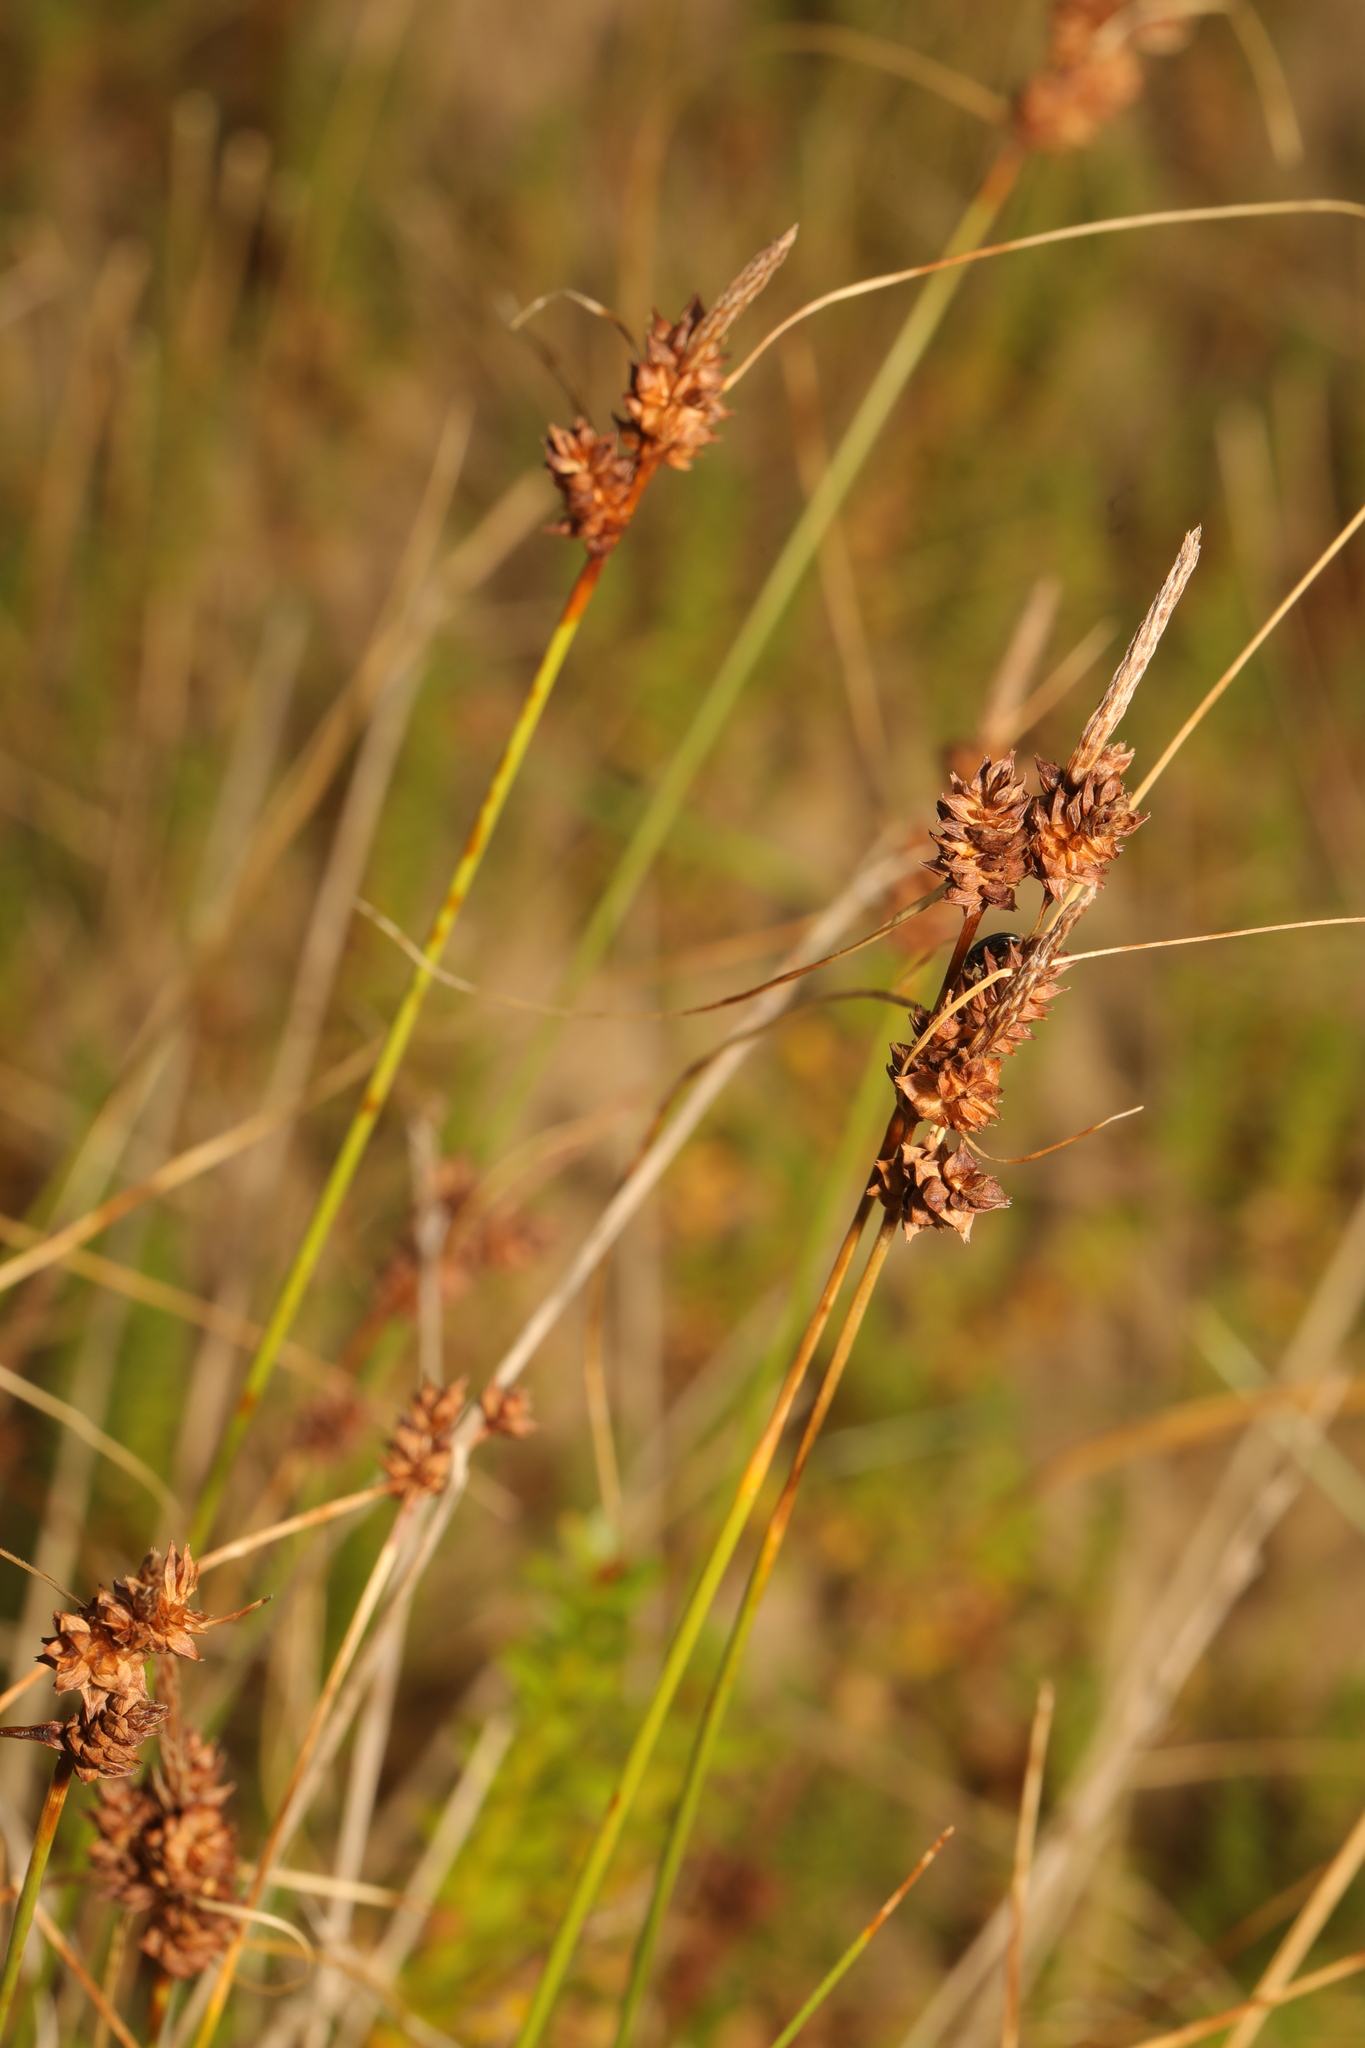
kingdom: Plantae
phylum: Tracheophyta
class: Liliopsida
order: Poales
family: Cyperaceae
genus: Carex
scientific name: Carex extensa
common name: Long-bracted sedge
